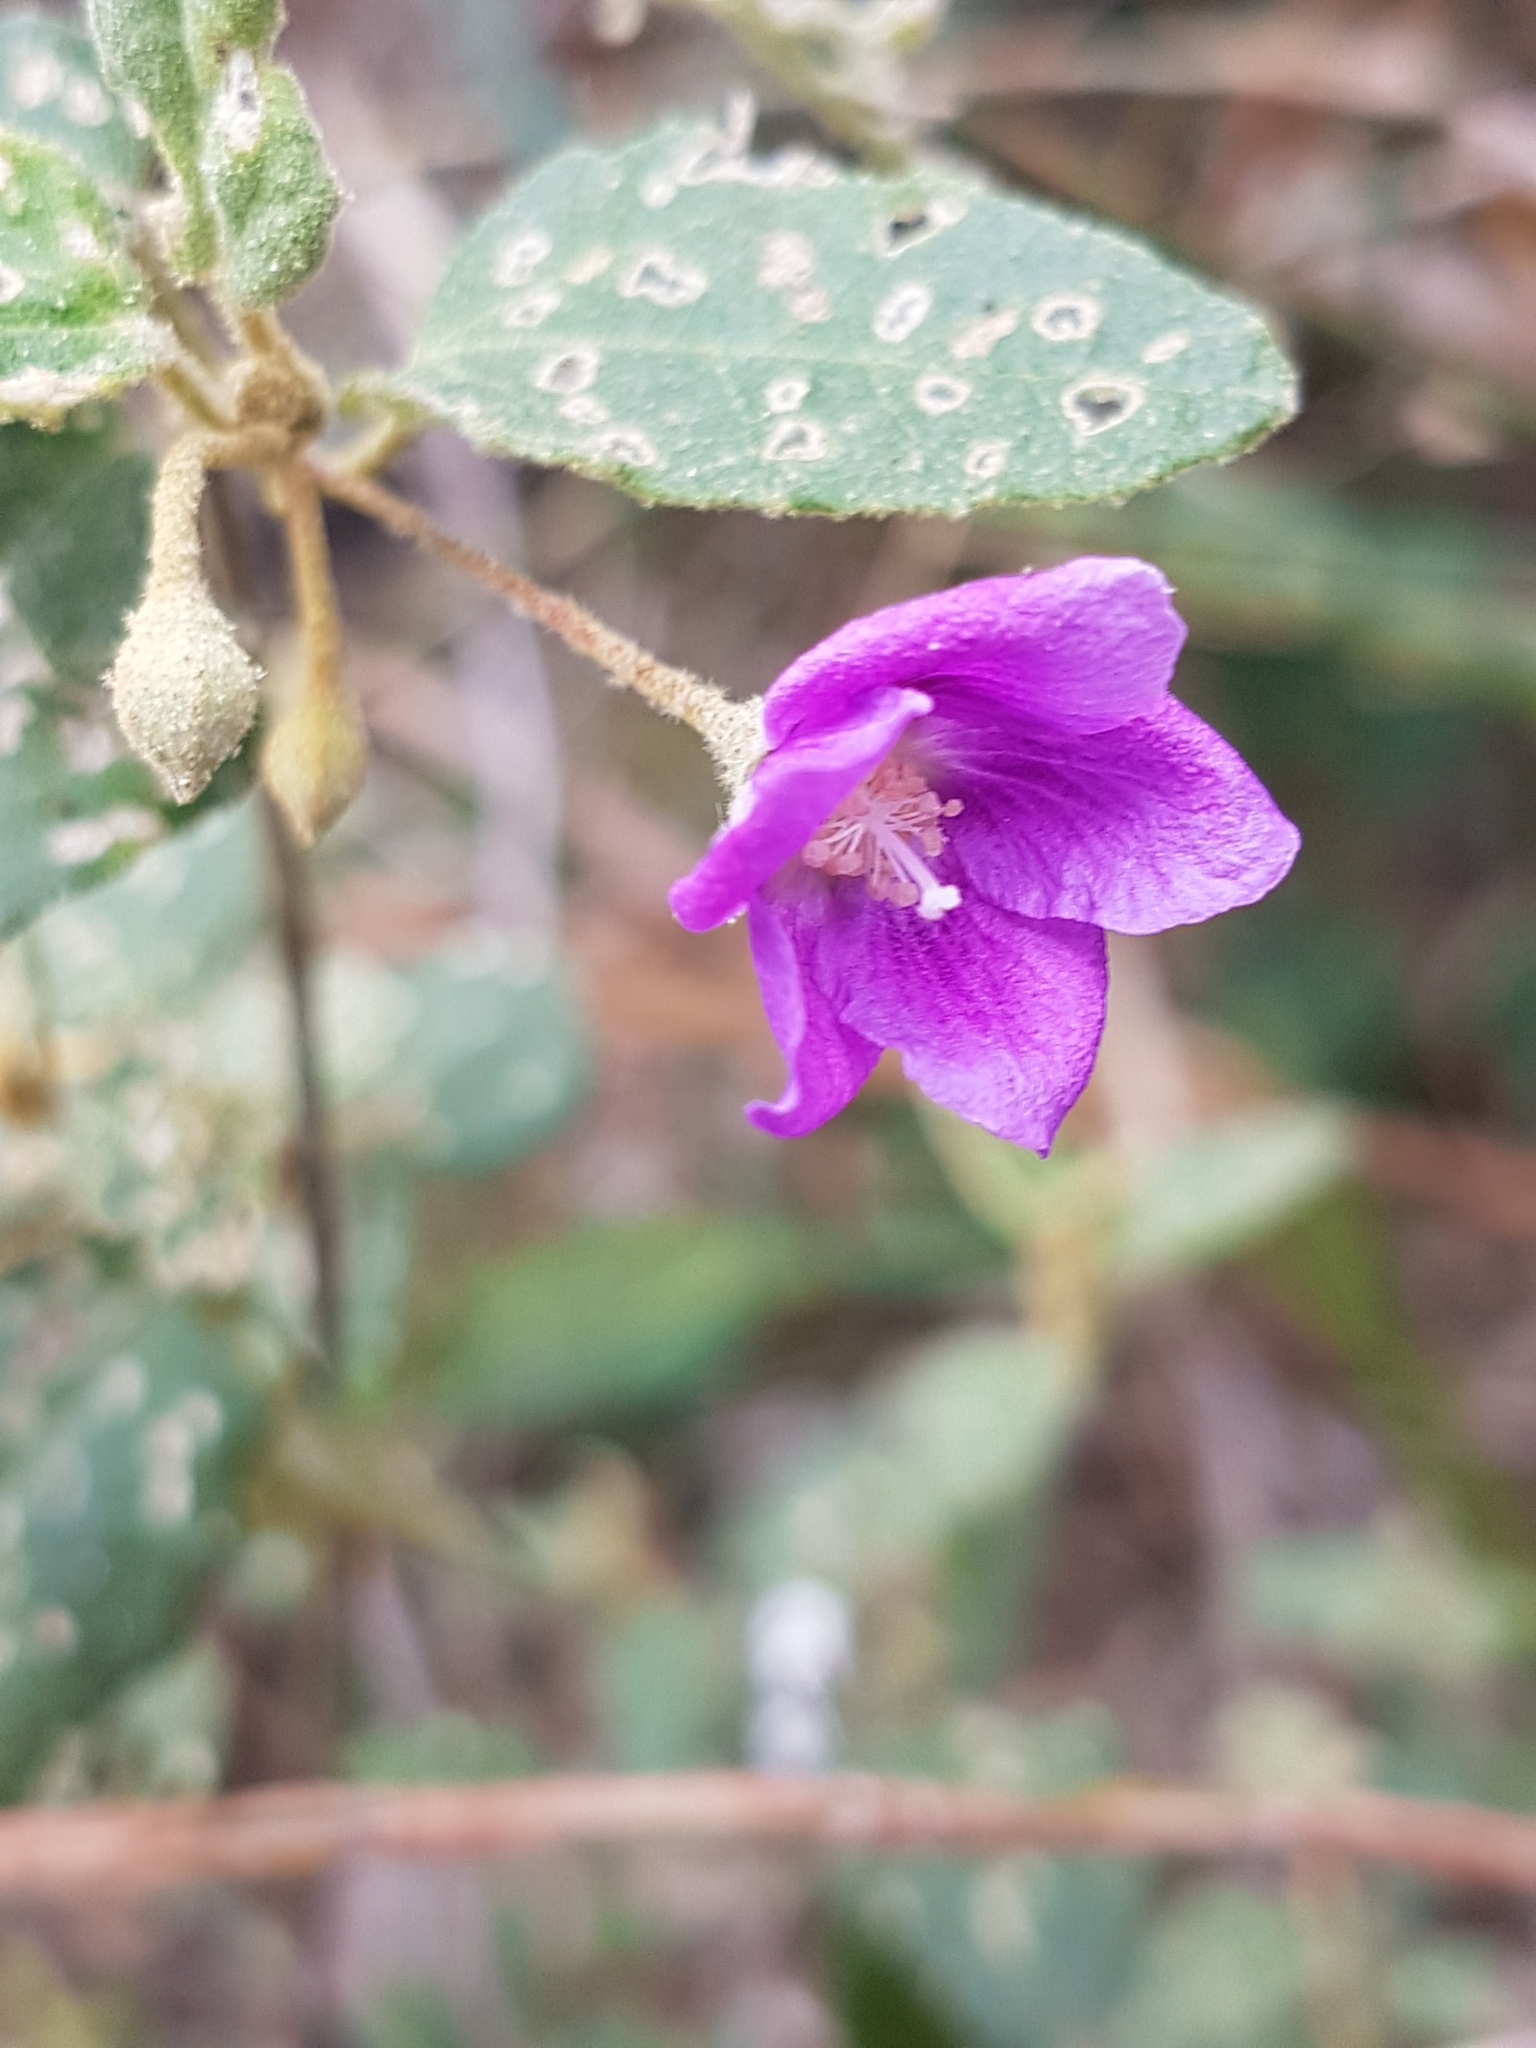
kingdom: Plantae
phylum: Tracheophyta
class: Magnoliopsida
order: Malvales
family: Malvaceae
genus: Howittia
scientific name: Howittia trilocularis
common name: Blue howittia
